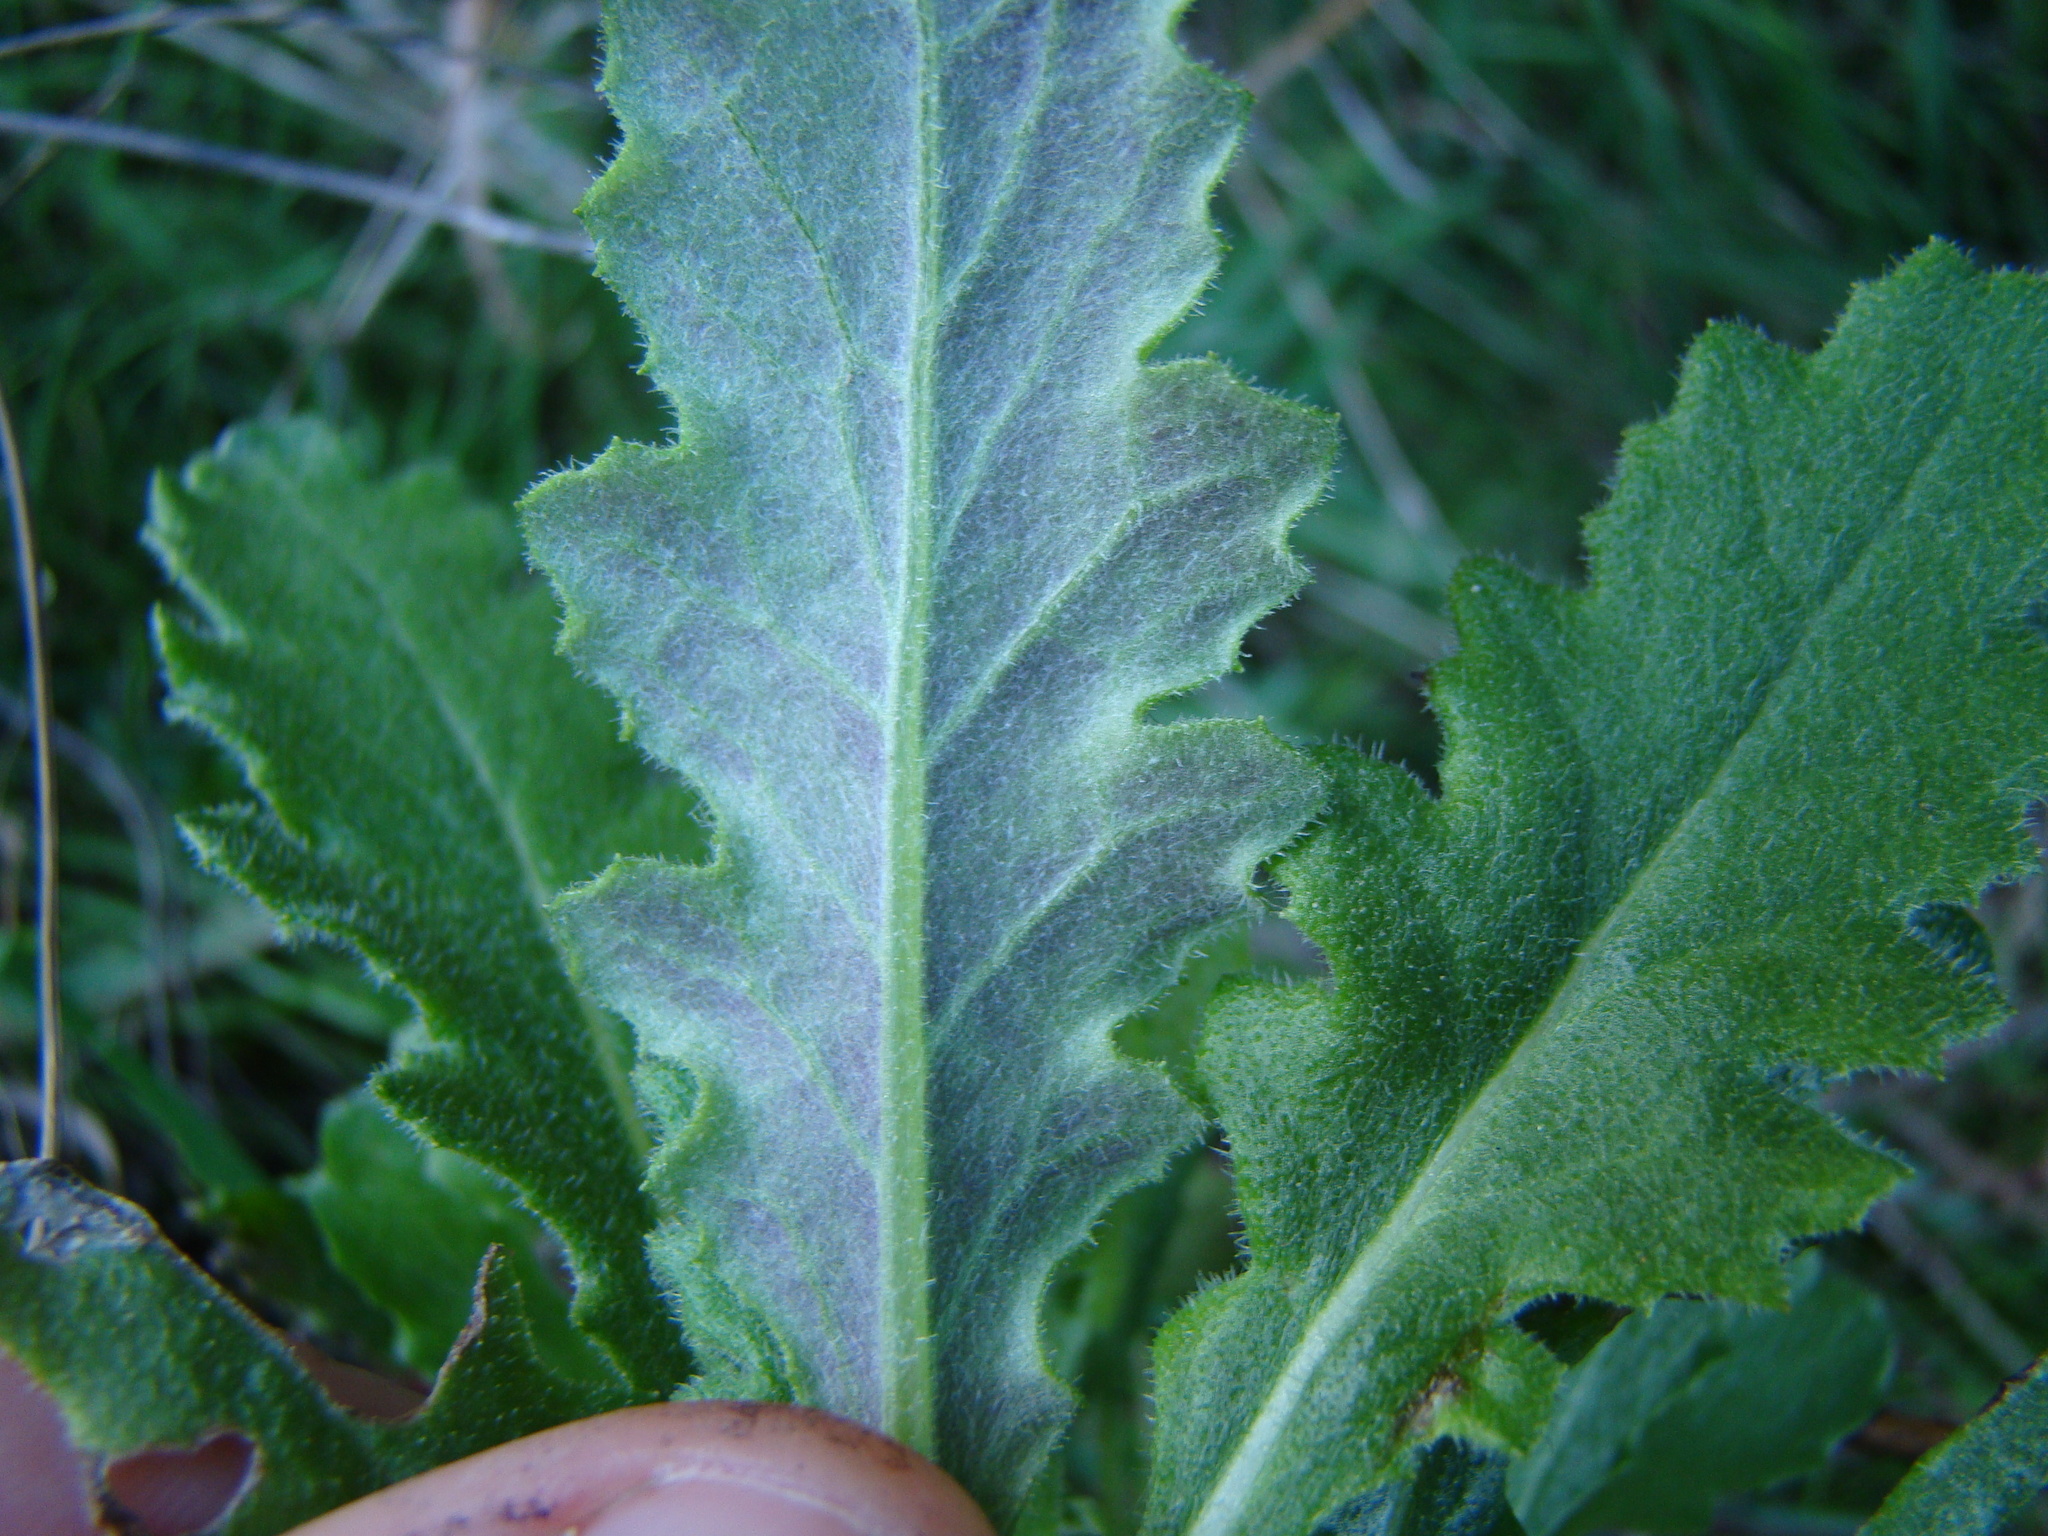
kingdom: Plantae
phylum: Tracheophyta
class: Magnoliopsida
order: Asterales
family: Asteraceae
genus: Senecio
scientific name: Senecio glomeratus
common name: Cutleaf burnweed
